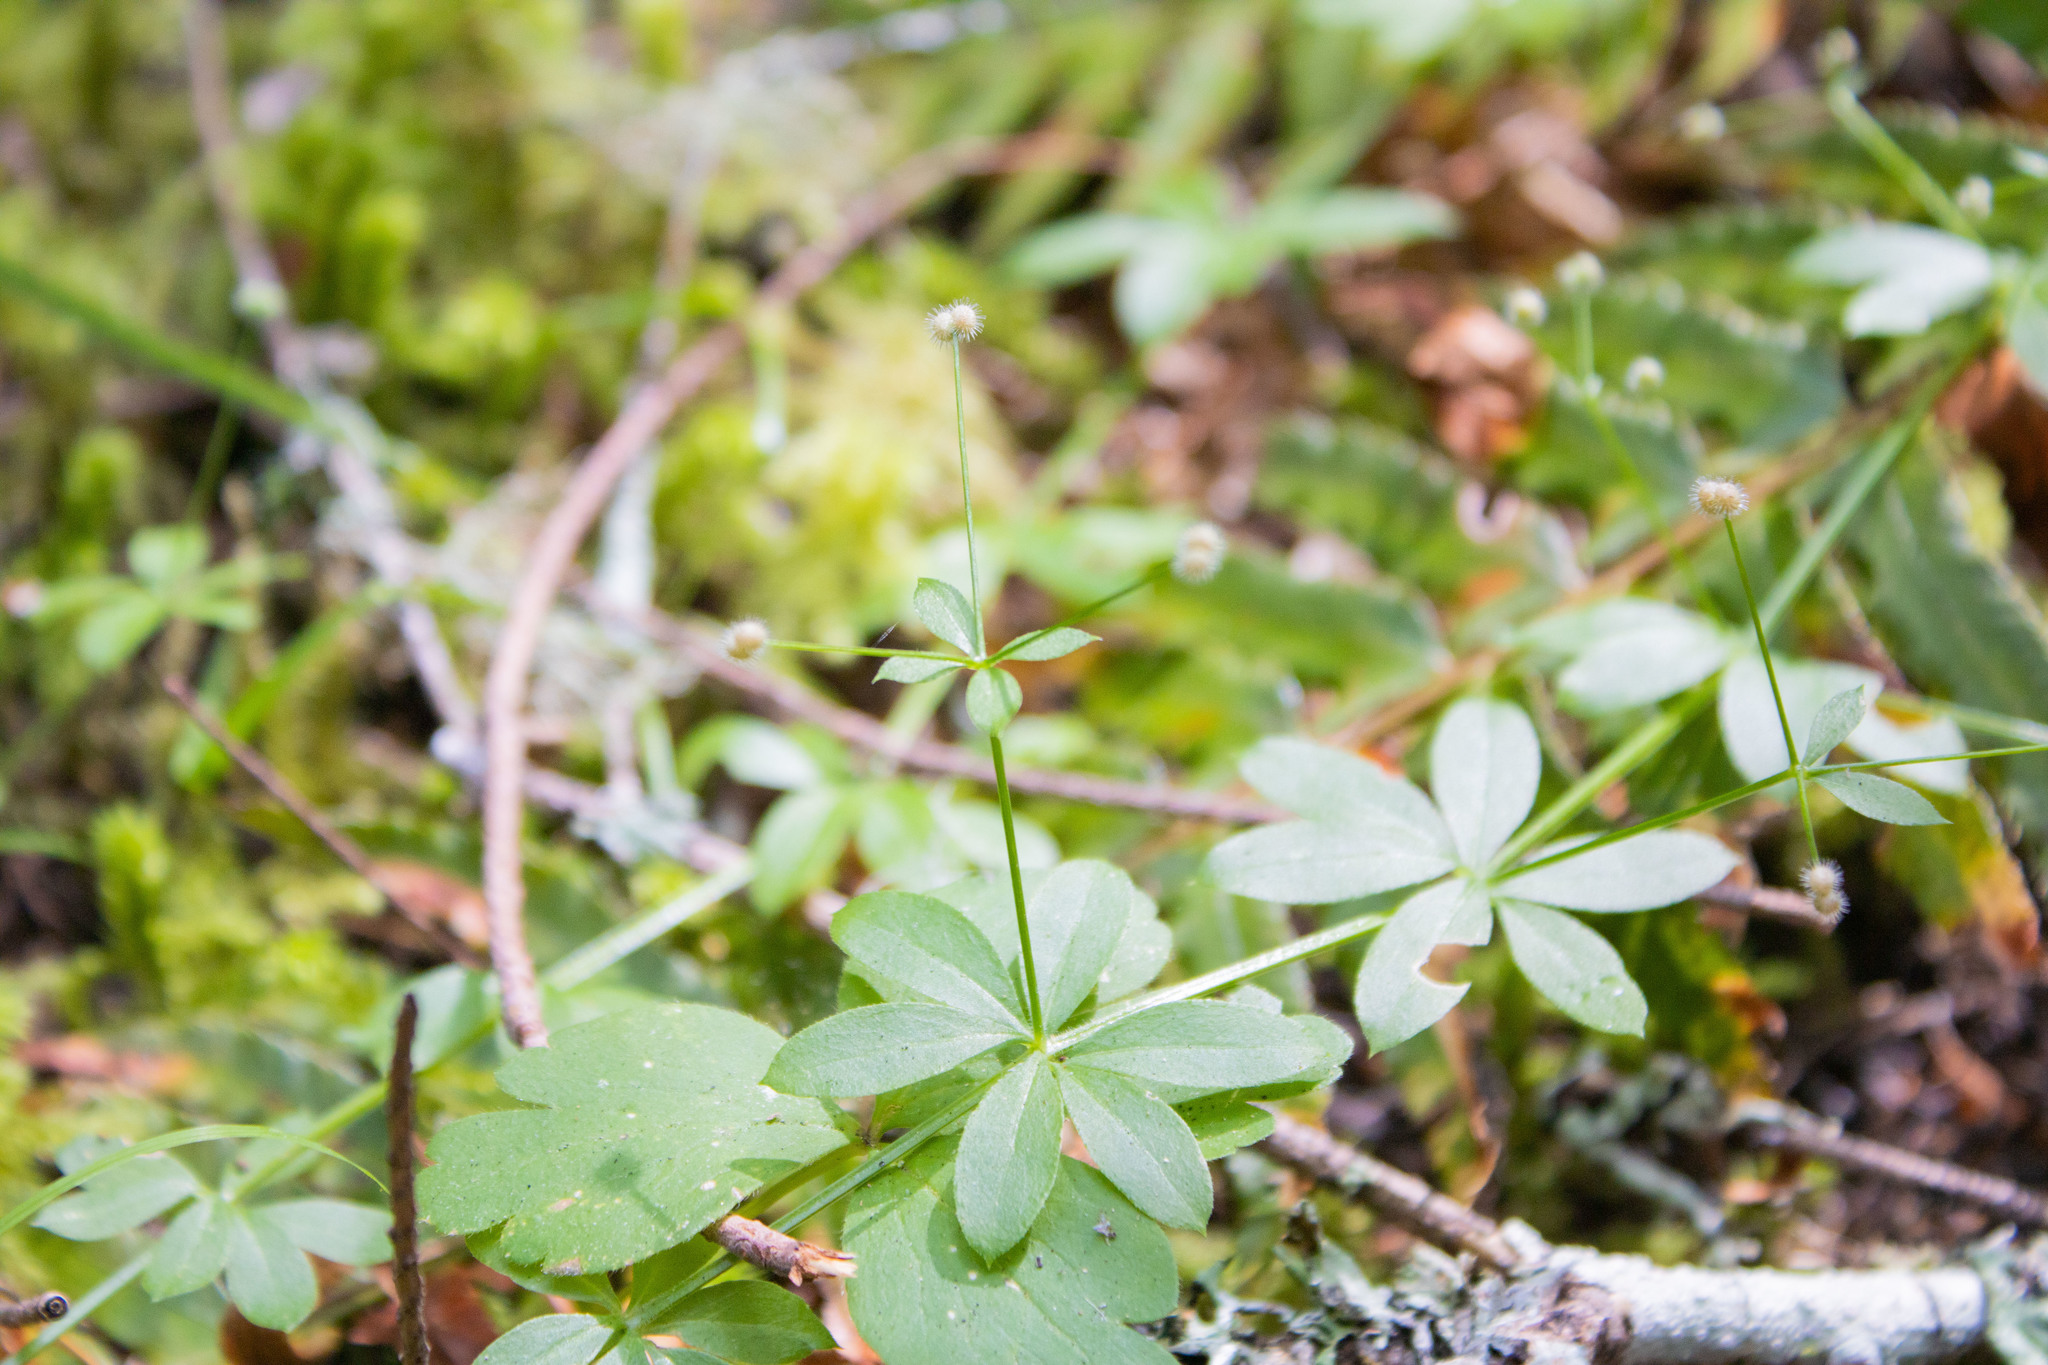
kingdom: Plantae
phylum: Tracheophyta
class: Magnoliopsida
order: Gentianales
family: Rubiaceae
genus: Galium
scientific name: Galium triflorum
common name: Fragrant bedstraw
